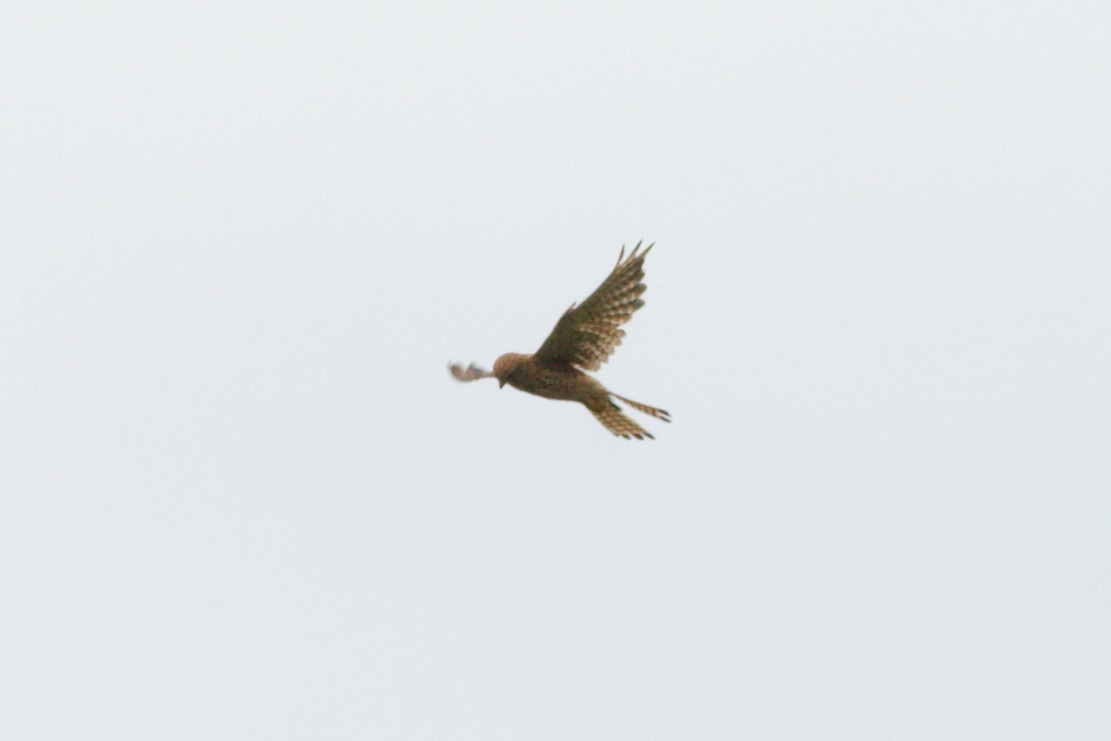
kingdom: Animalia
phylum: Chordata
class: Aves
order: Falconiformes
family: Falconidae
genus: Falco
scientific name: Falco tinnunculus
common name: Common kestrel
